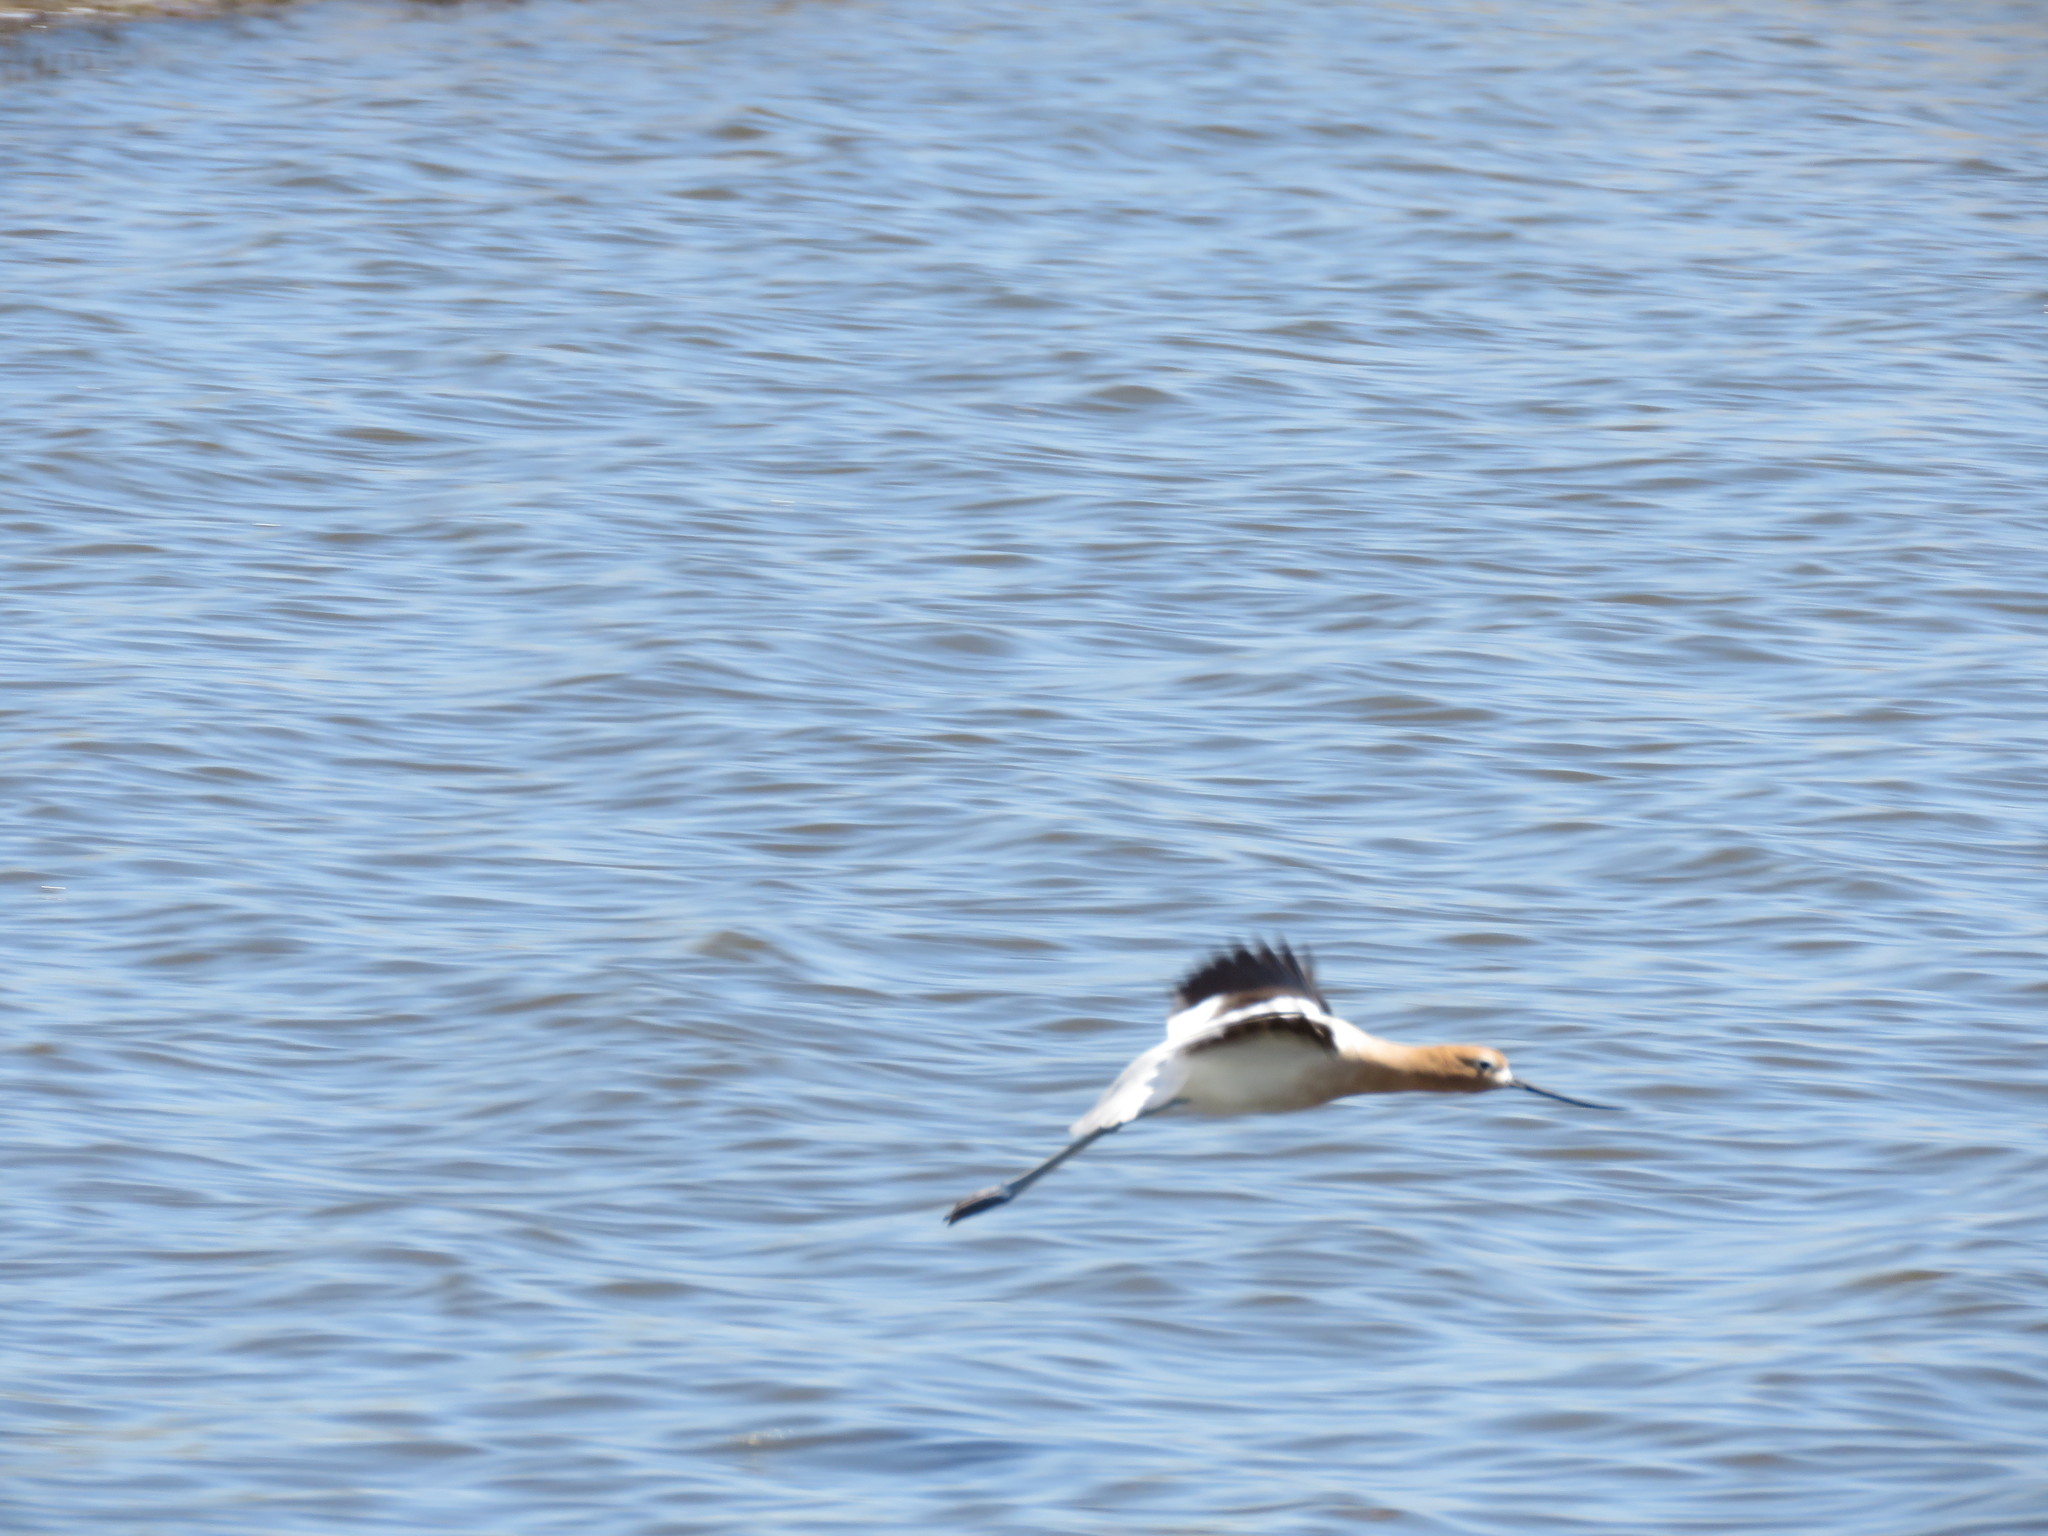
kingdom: Animalia
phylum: Chordata
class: Aves
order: Charadriiformes
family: Recurvirostridae
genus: Recurvirostra
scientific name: Recurvirostra americana
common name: American avocet
